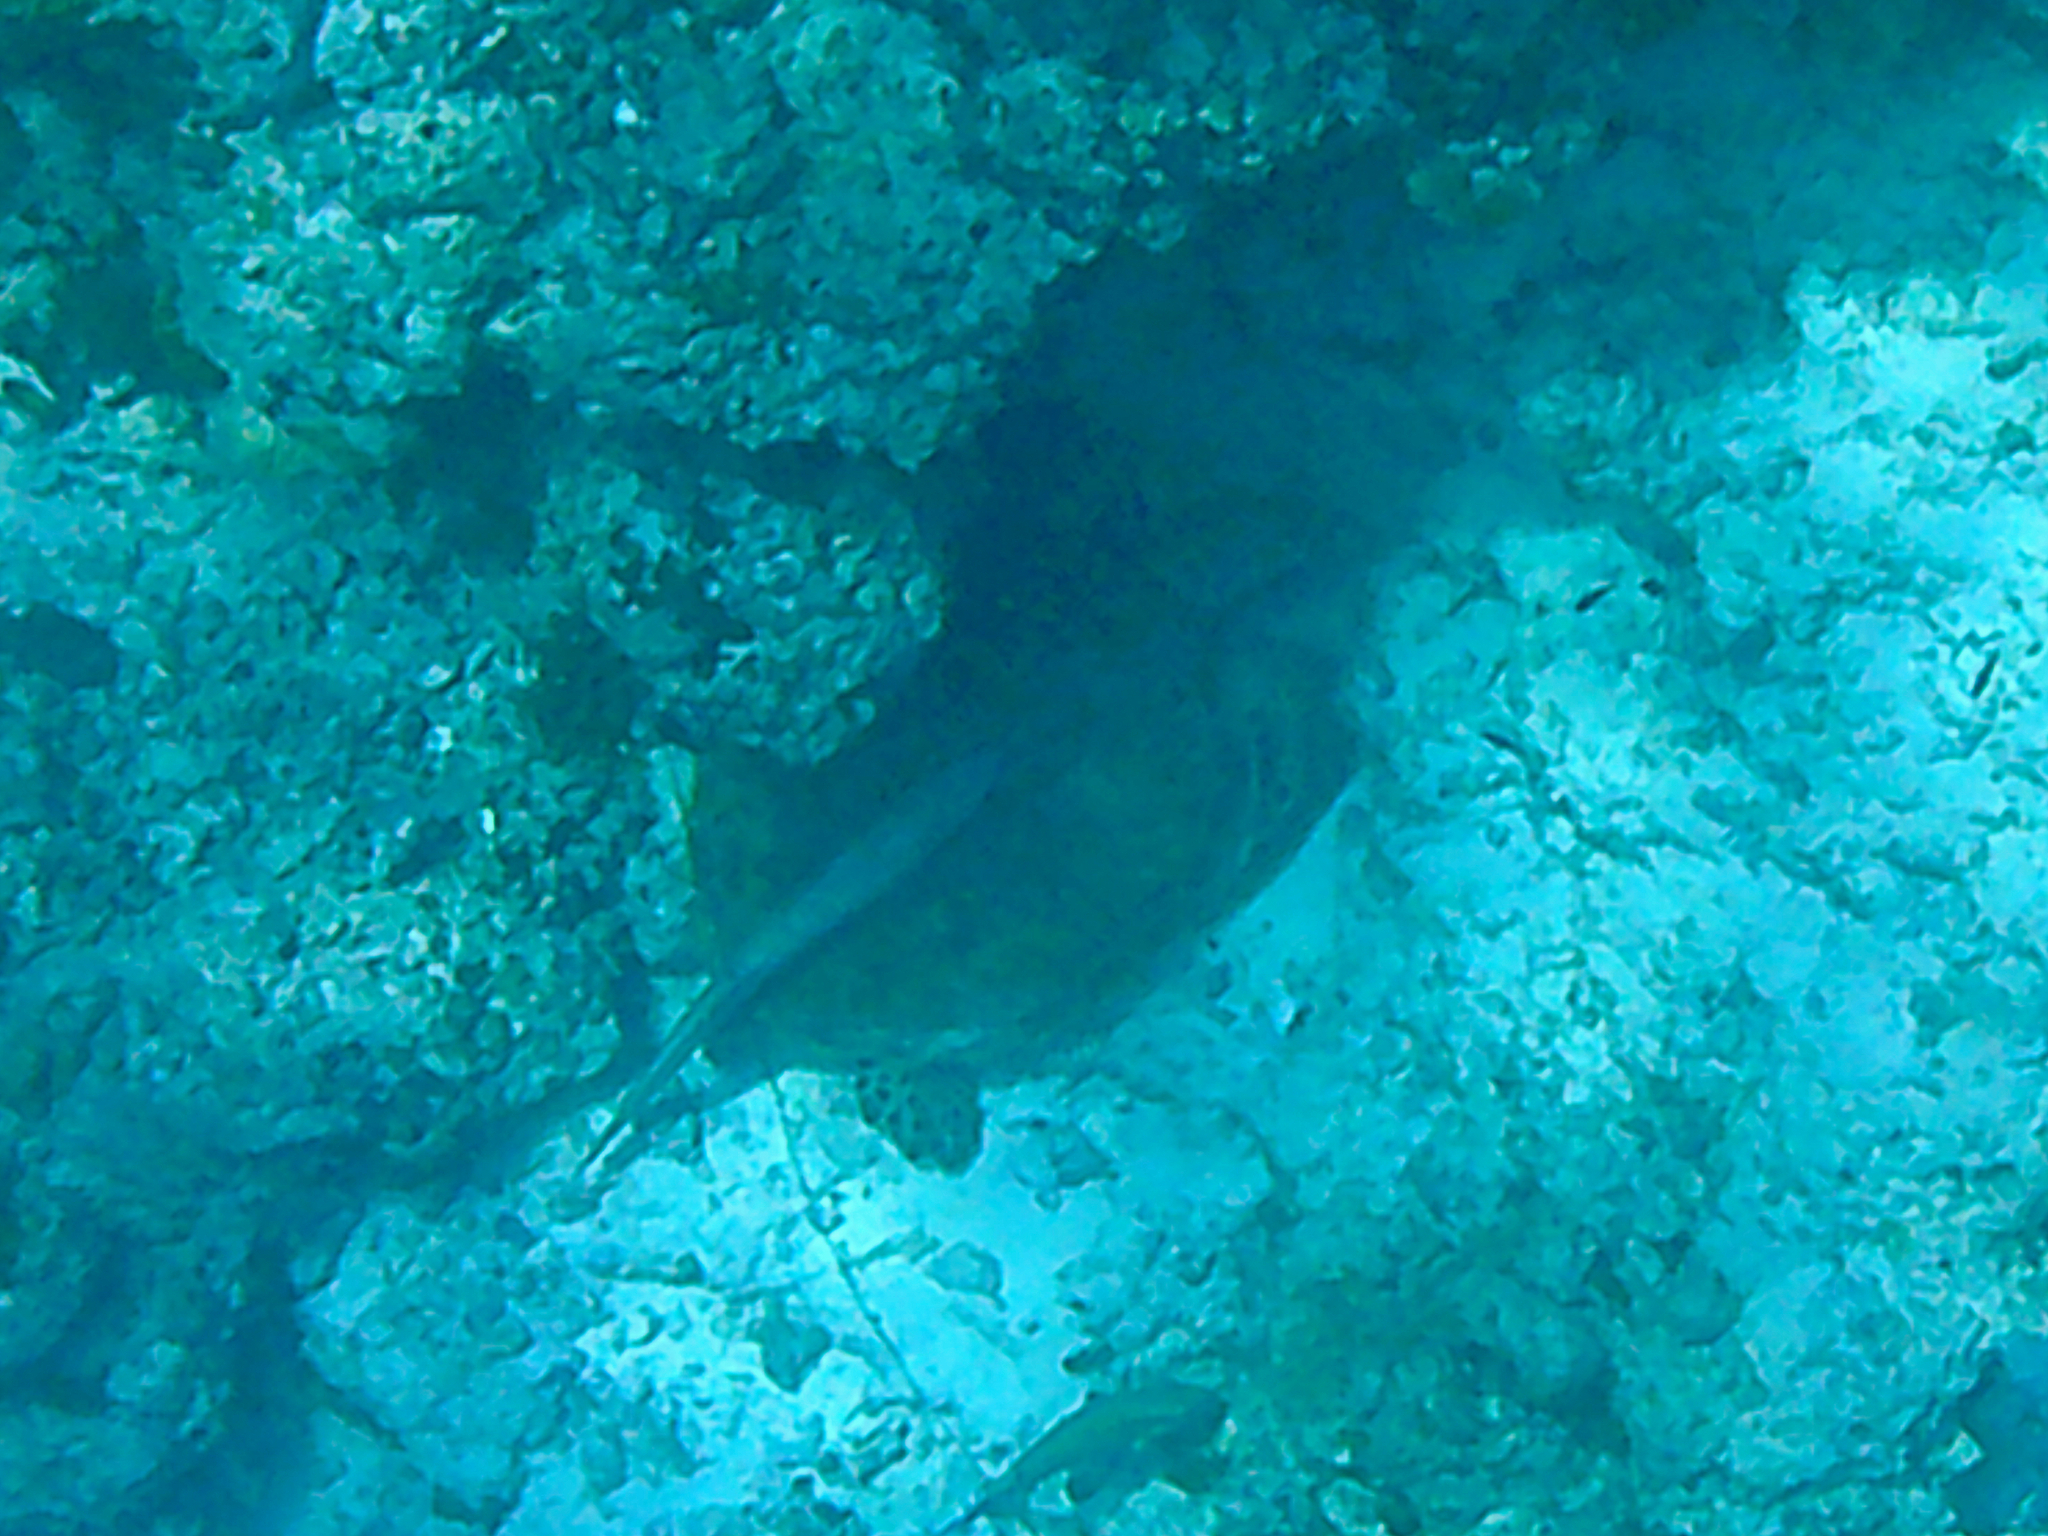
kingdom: Animalia
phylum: Chordata
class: Testudines
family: Cheloniidae
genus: Chelonia
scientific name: Chelonia mydas
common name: Green turtle
